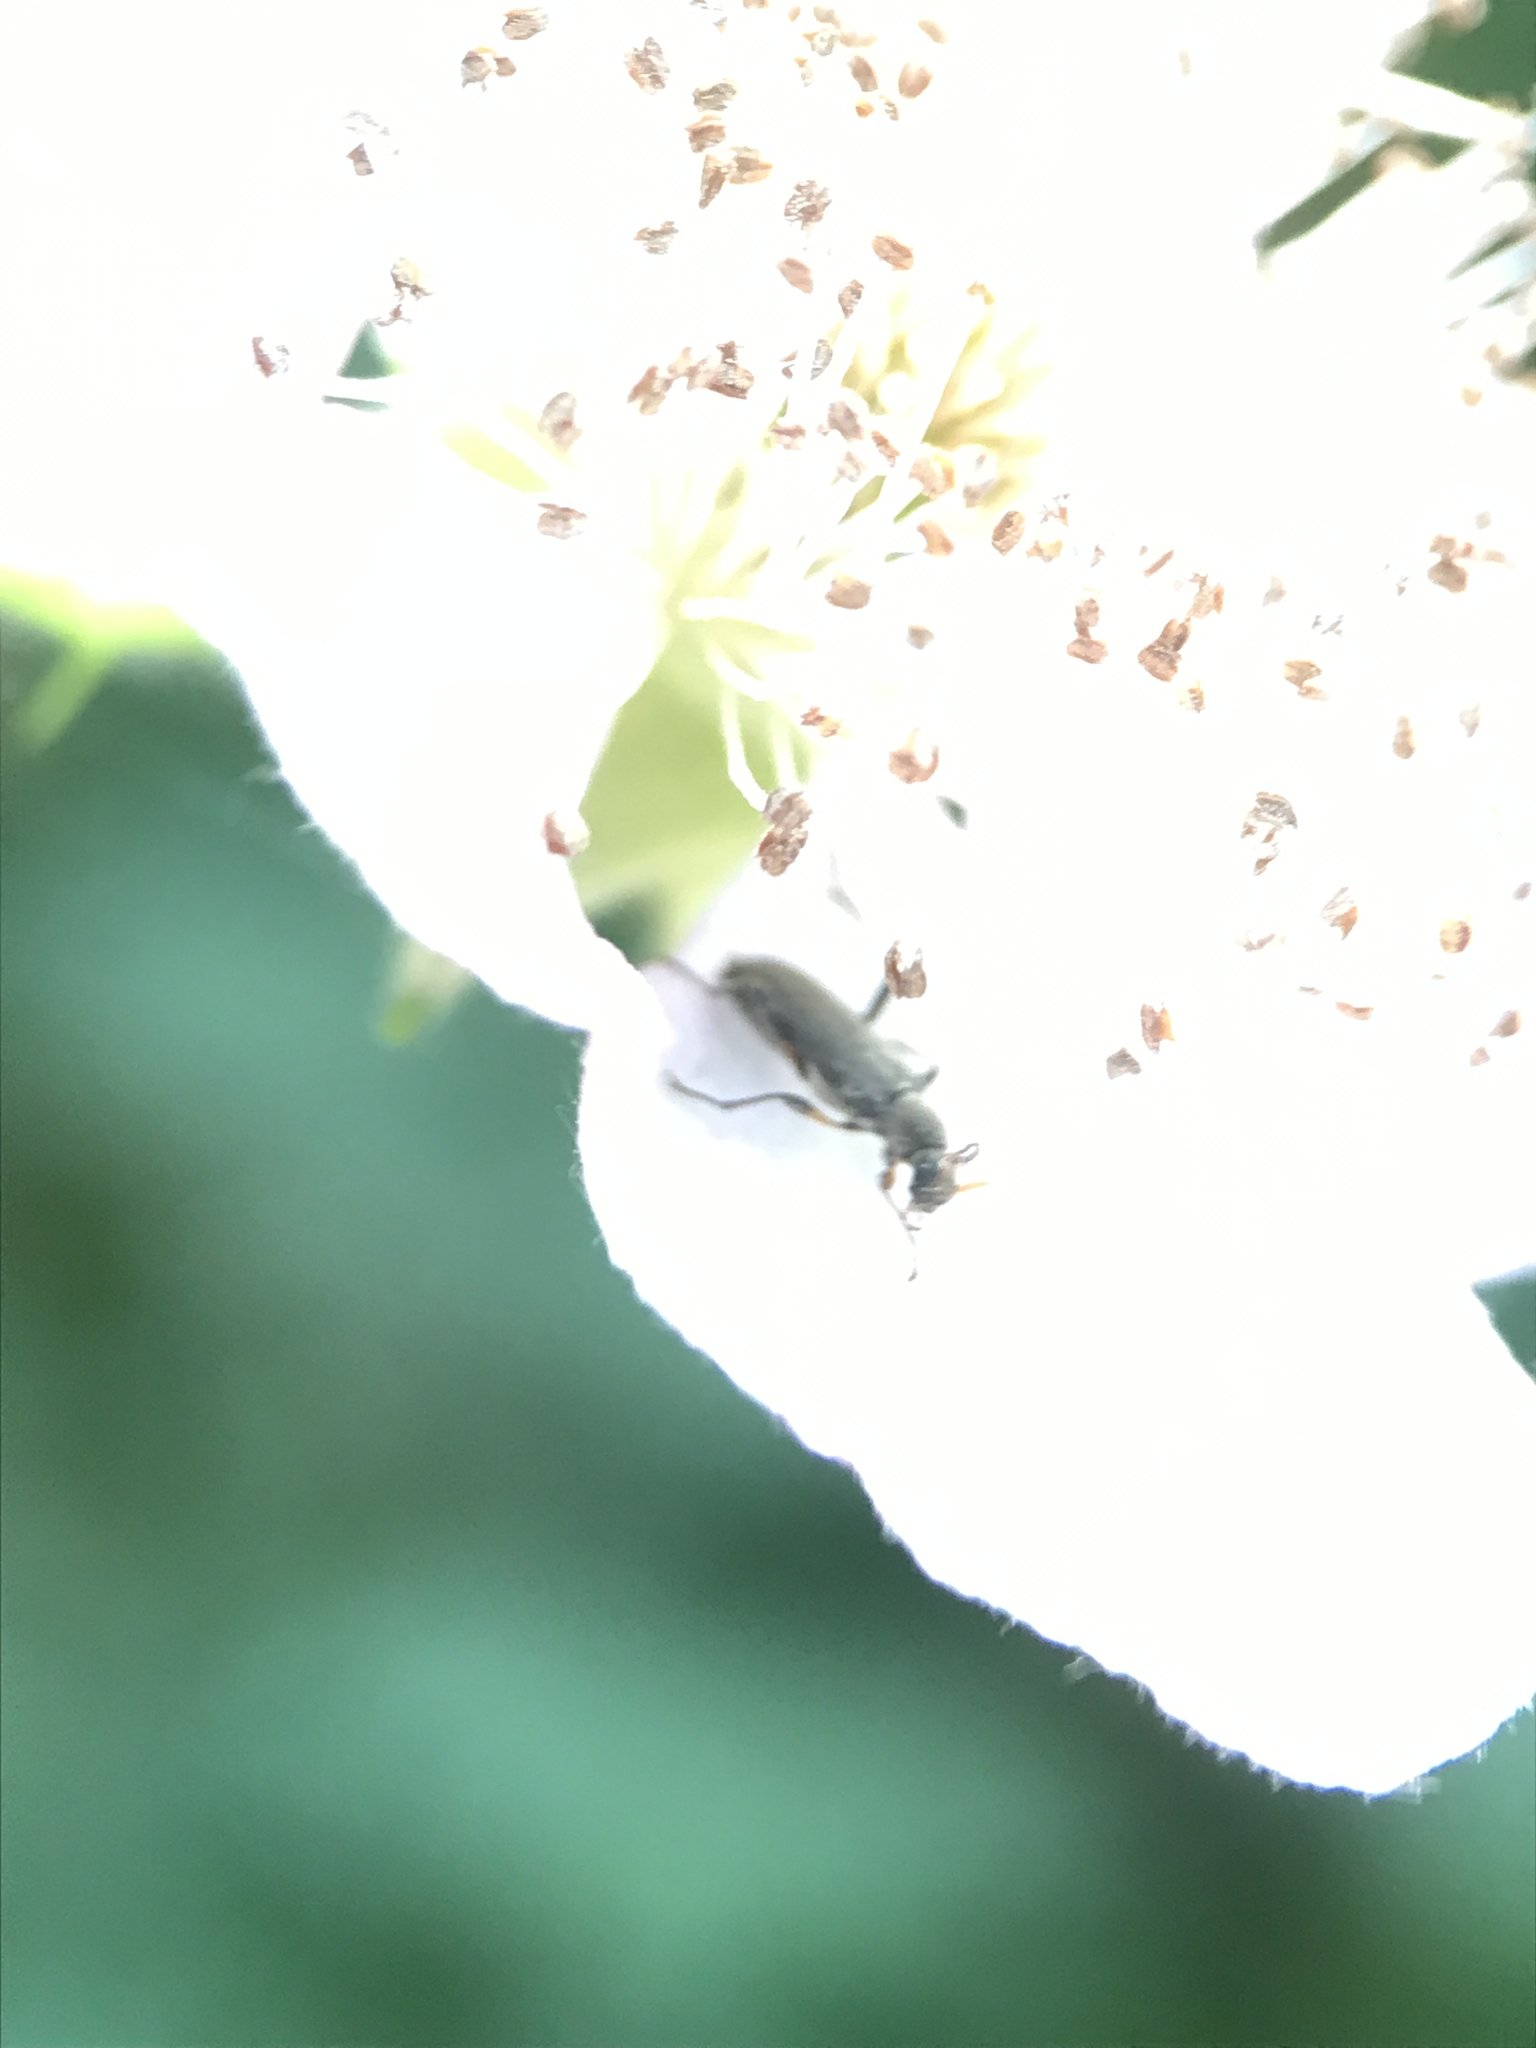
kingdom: Animalia
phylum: Arthropoda
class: Insecta
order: Coleoptera
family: Cerambycidae
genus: Grammoptera
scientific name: Grammoptera ruficornis
